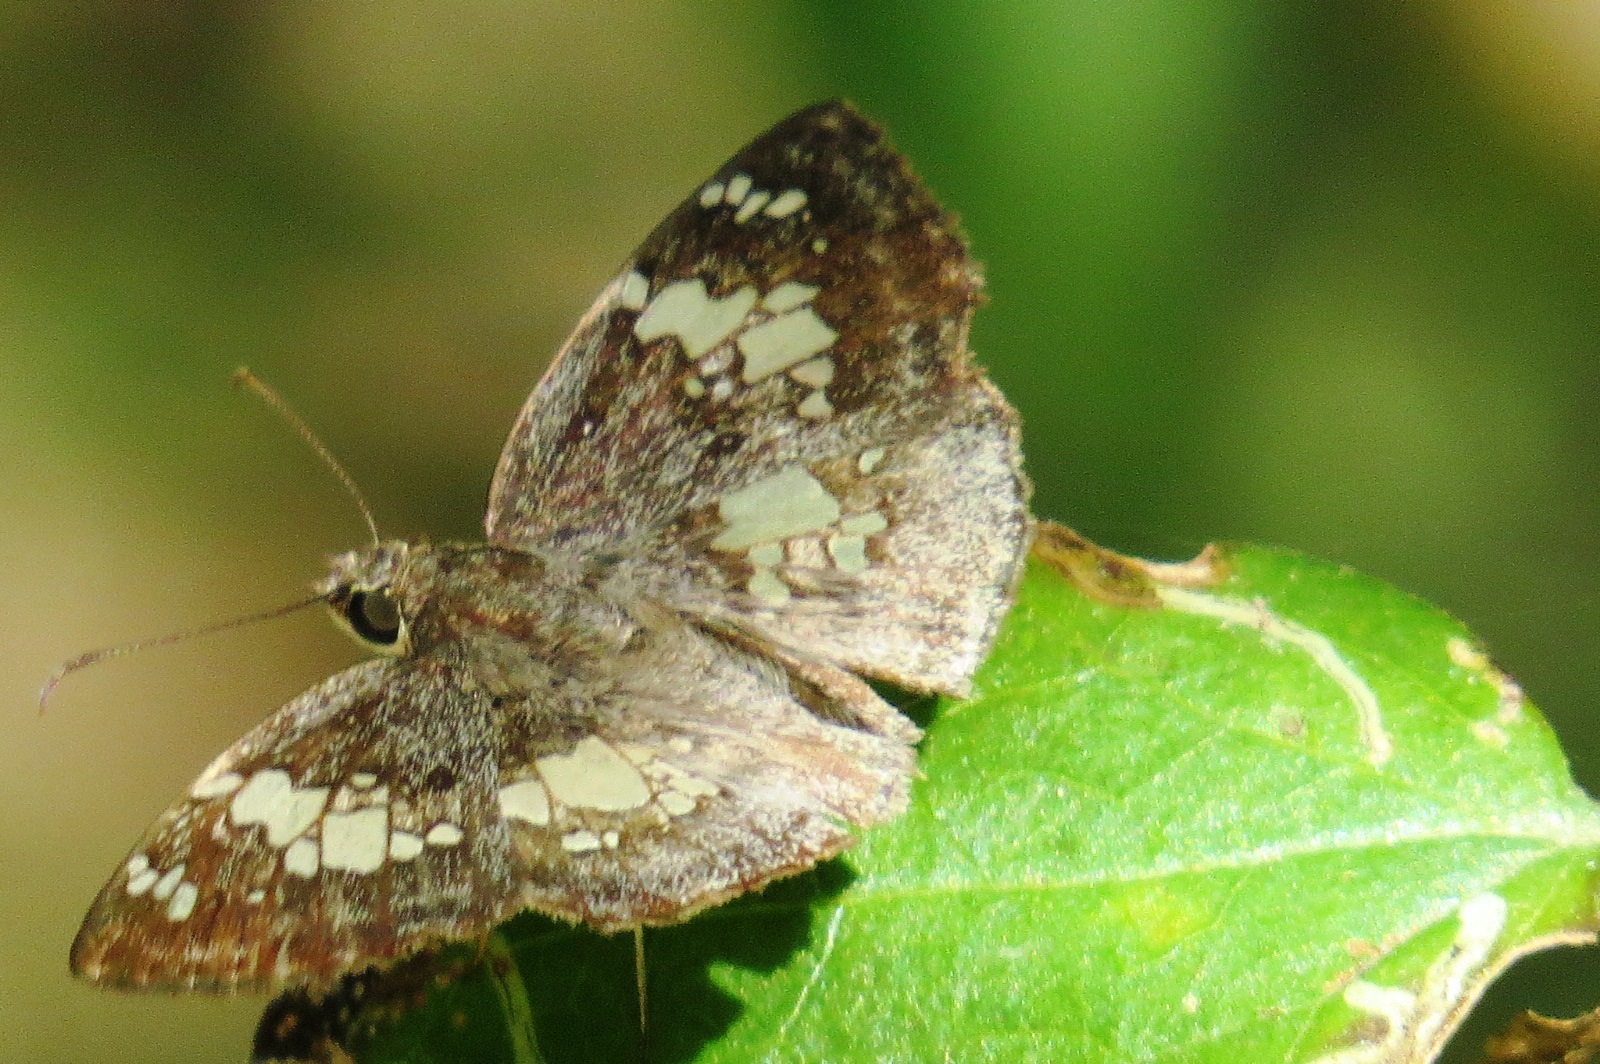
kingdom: Animalia
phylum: Arthropoda
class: Insecta
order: Lepidoptera
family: Hesperiidae
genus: Xenophanes
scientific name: Xenophanes tryxus
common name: Glassy-winged skipper
